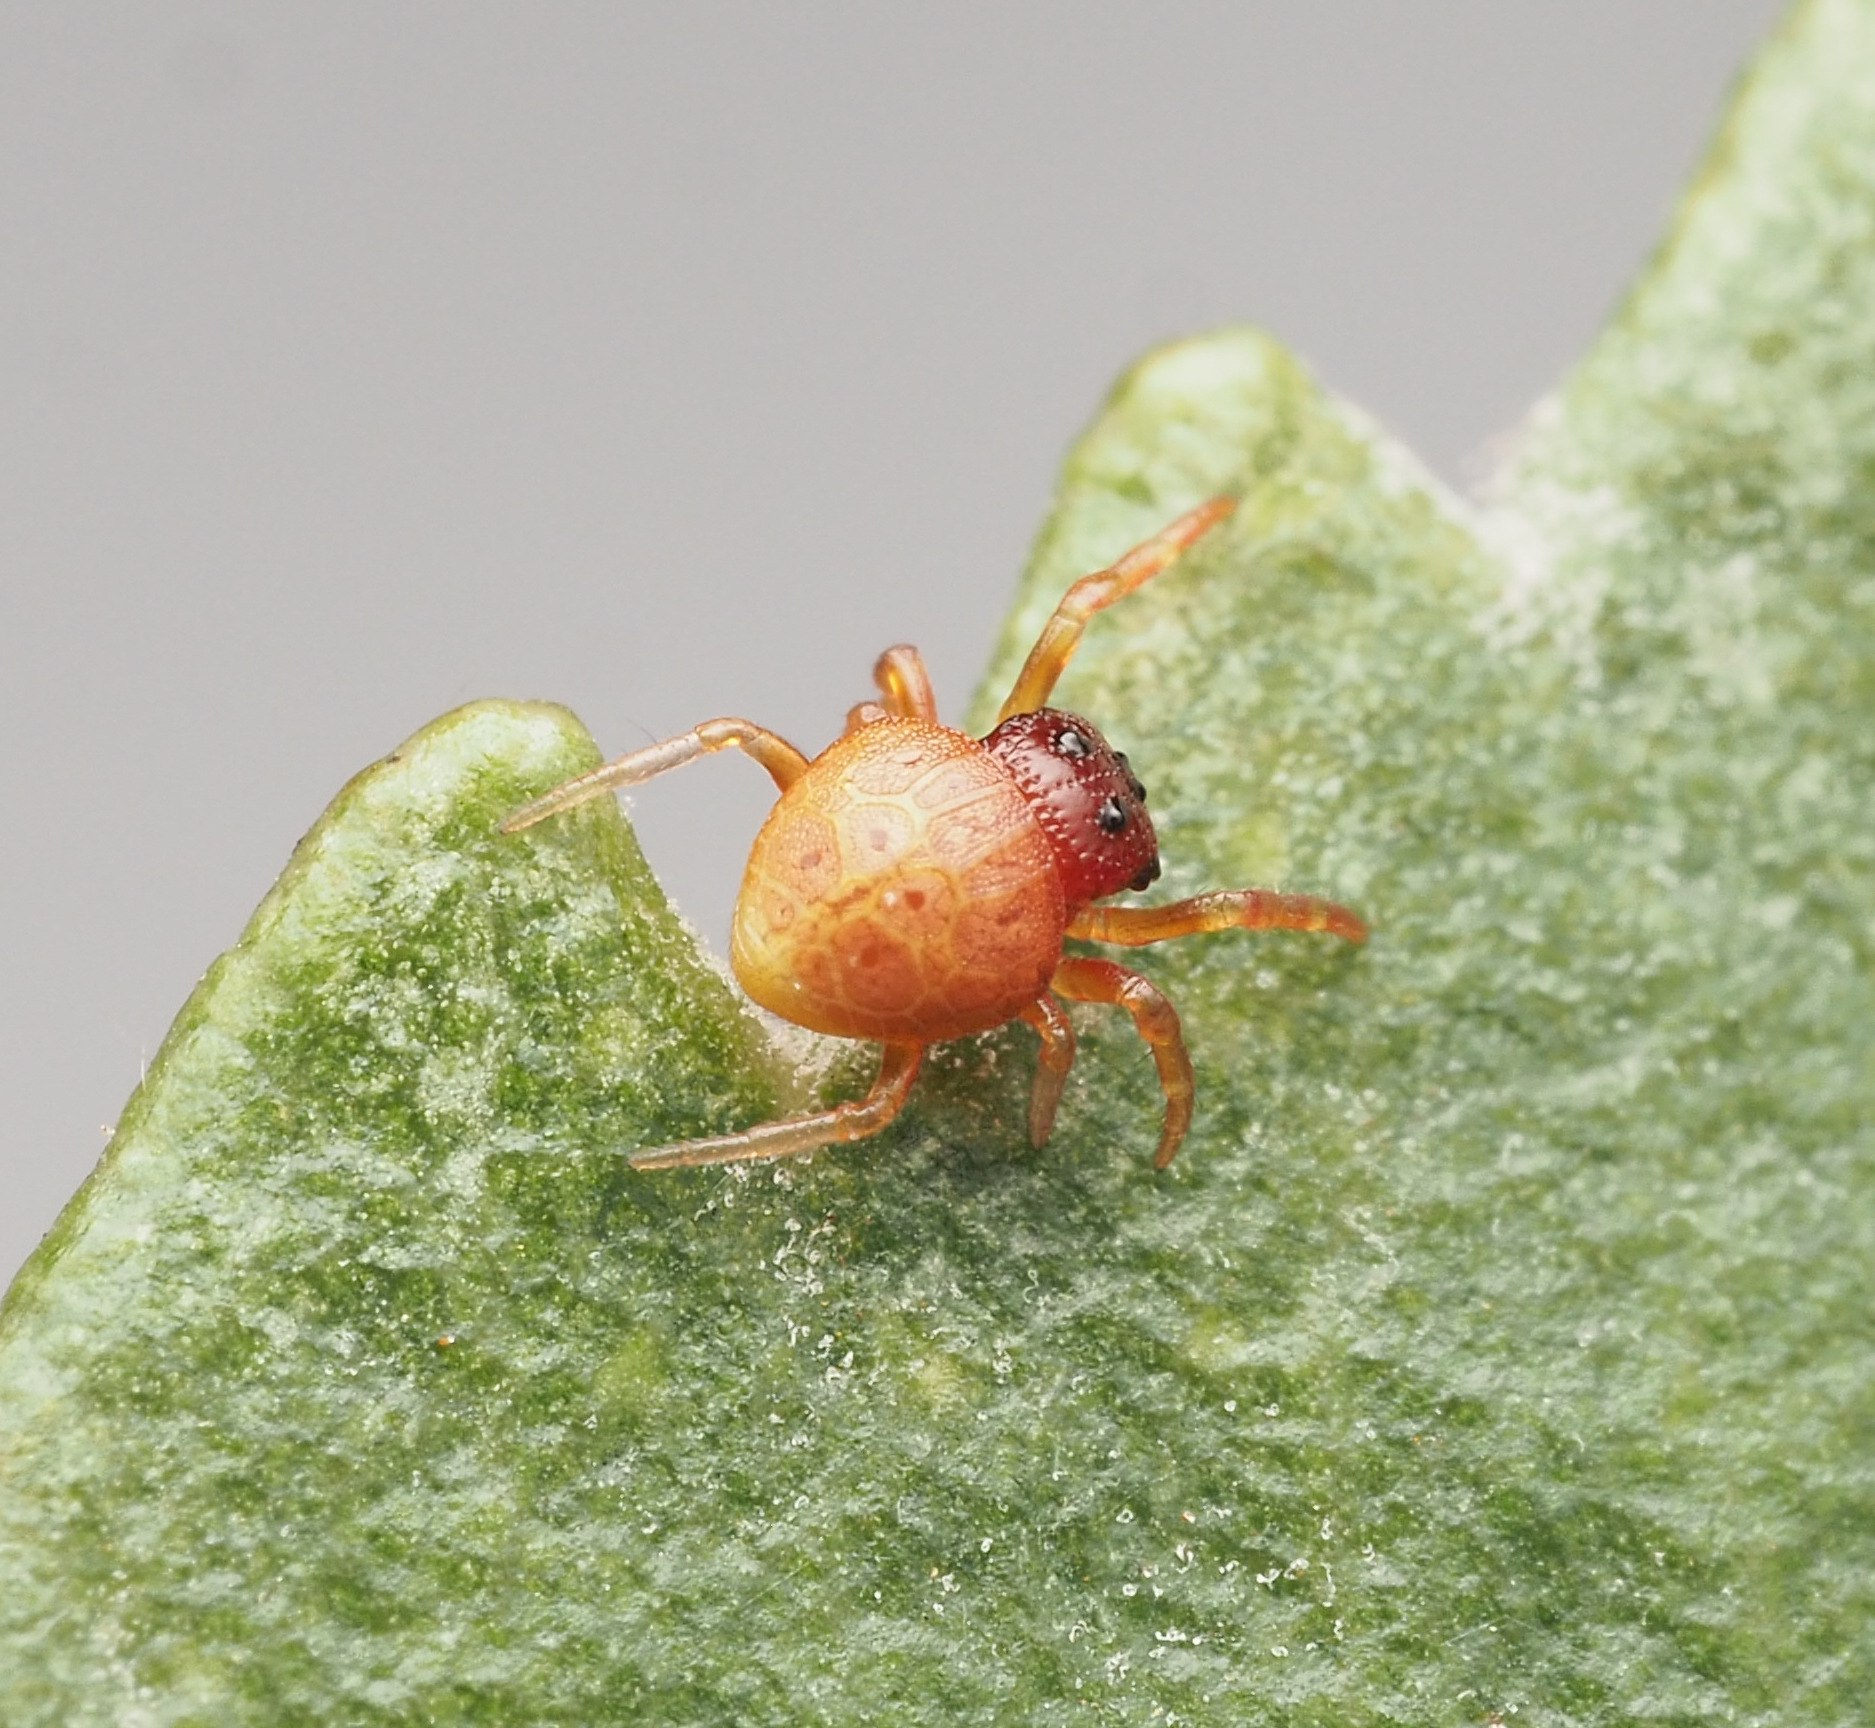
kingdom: Animalia
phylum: Arthropoda
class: Arachnida
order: Araneae
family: Arkyidae
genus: Demadiana
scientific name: Demadiana complicata
